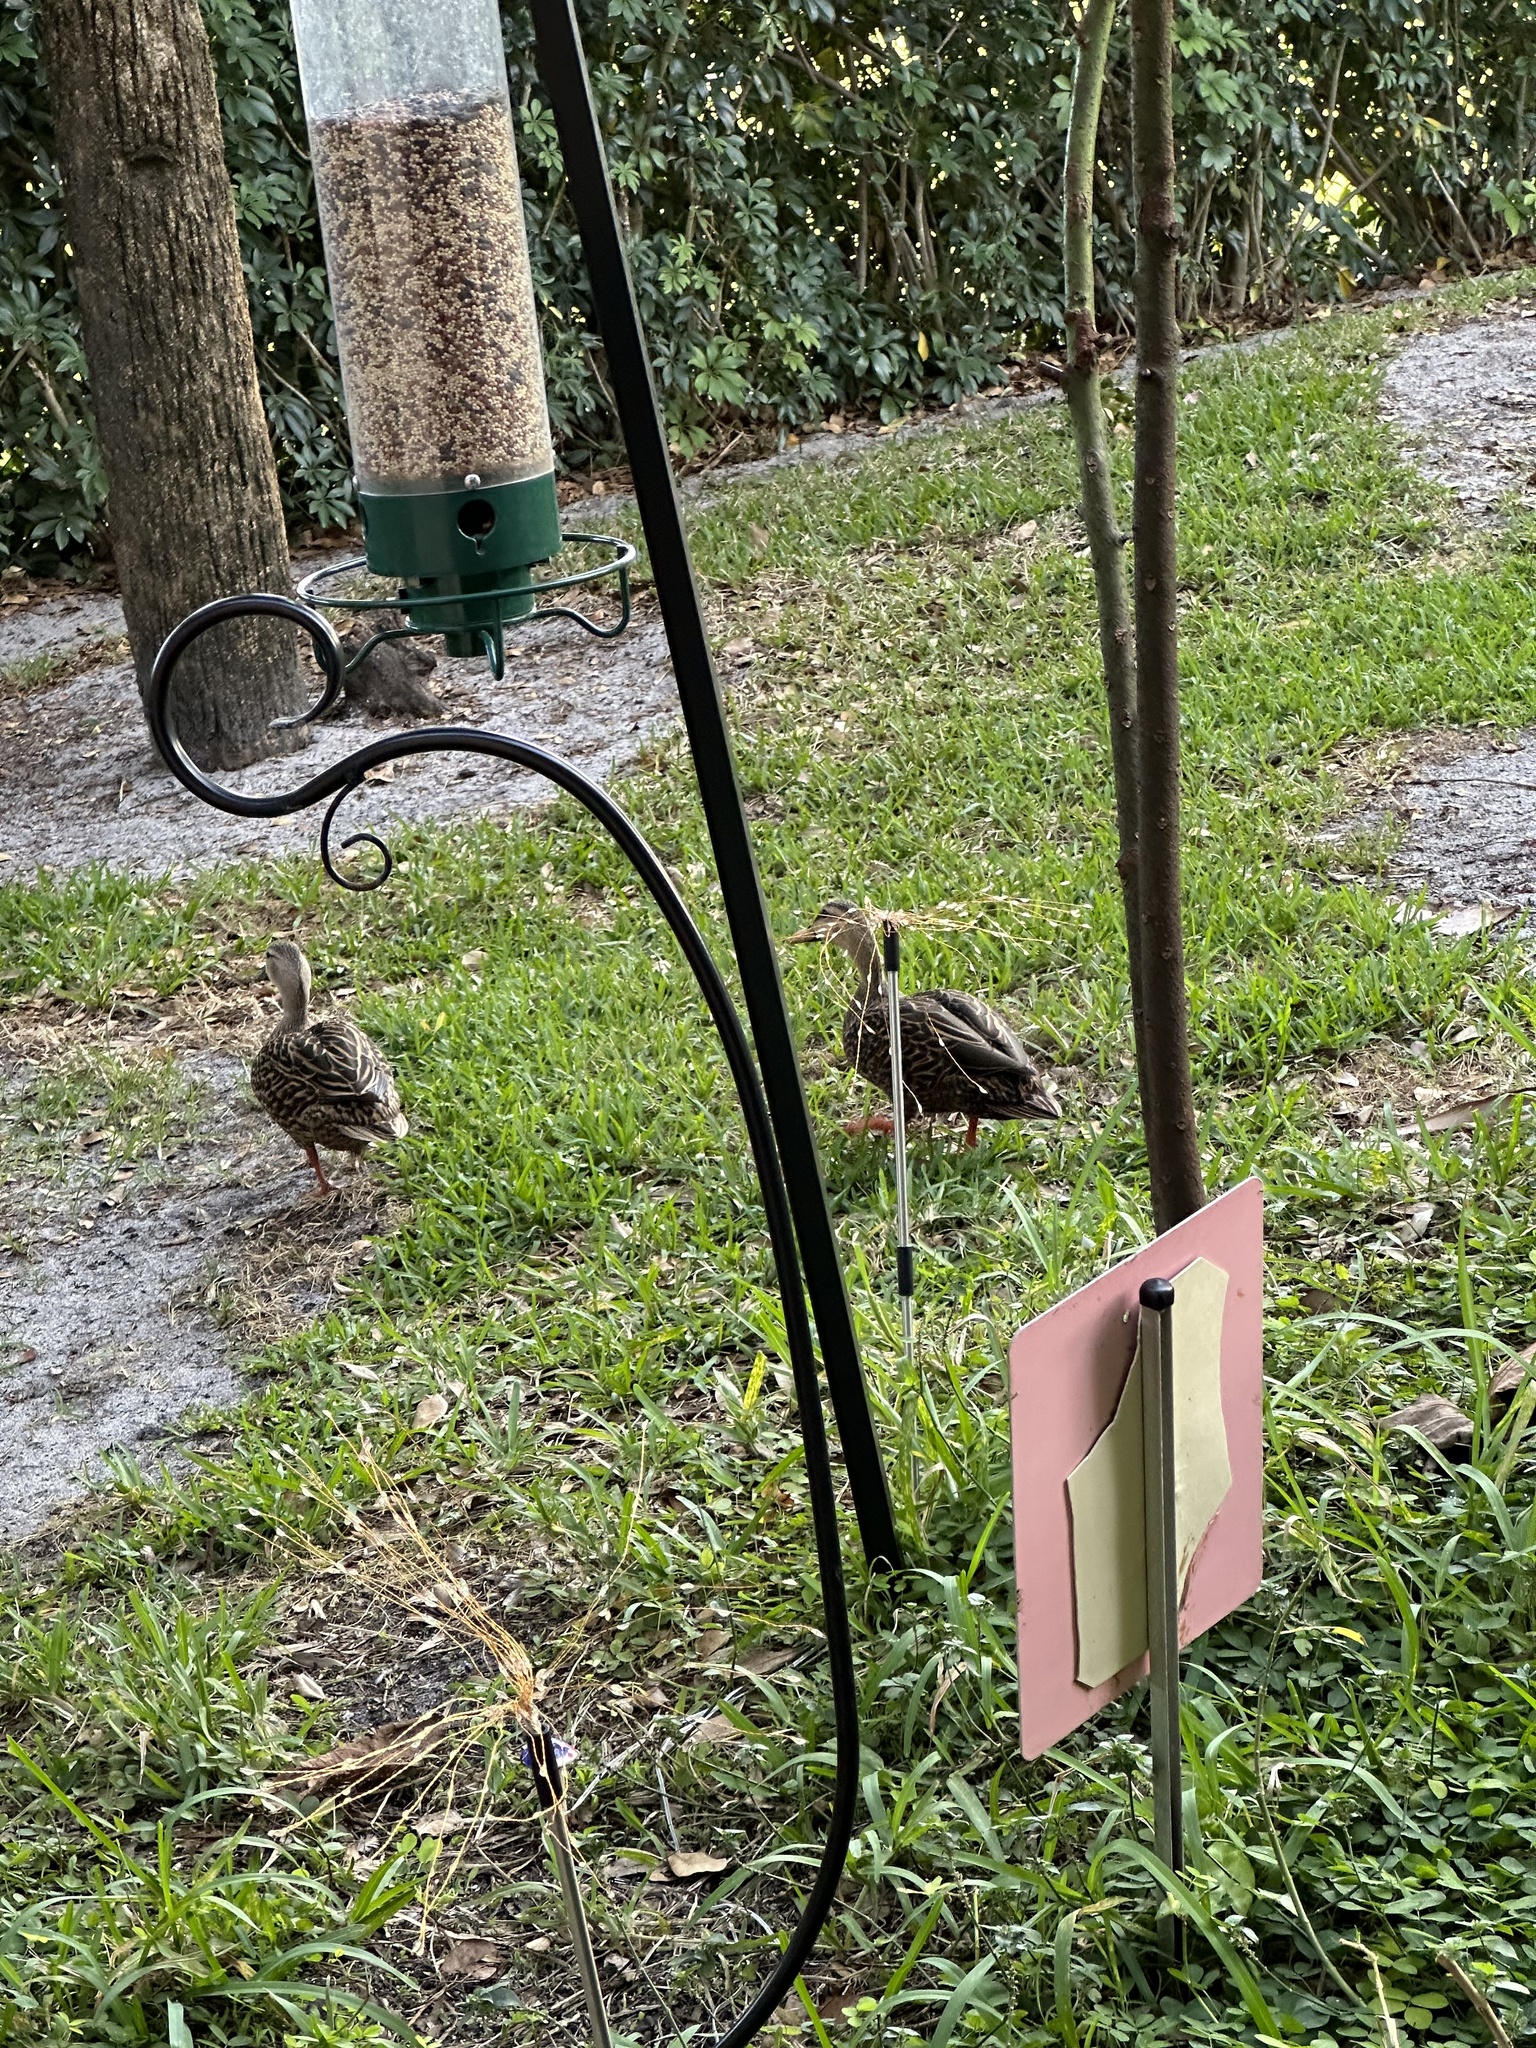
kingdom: Animalia
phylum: Chordata
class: Aves
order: Anseriformes
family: Anatidae
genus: Anas
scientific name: Anas fulvigula
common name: Mottled duck
